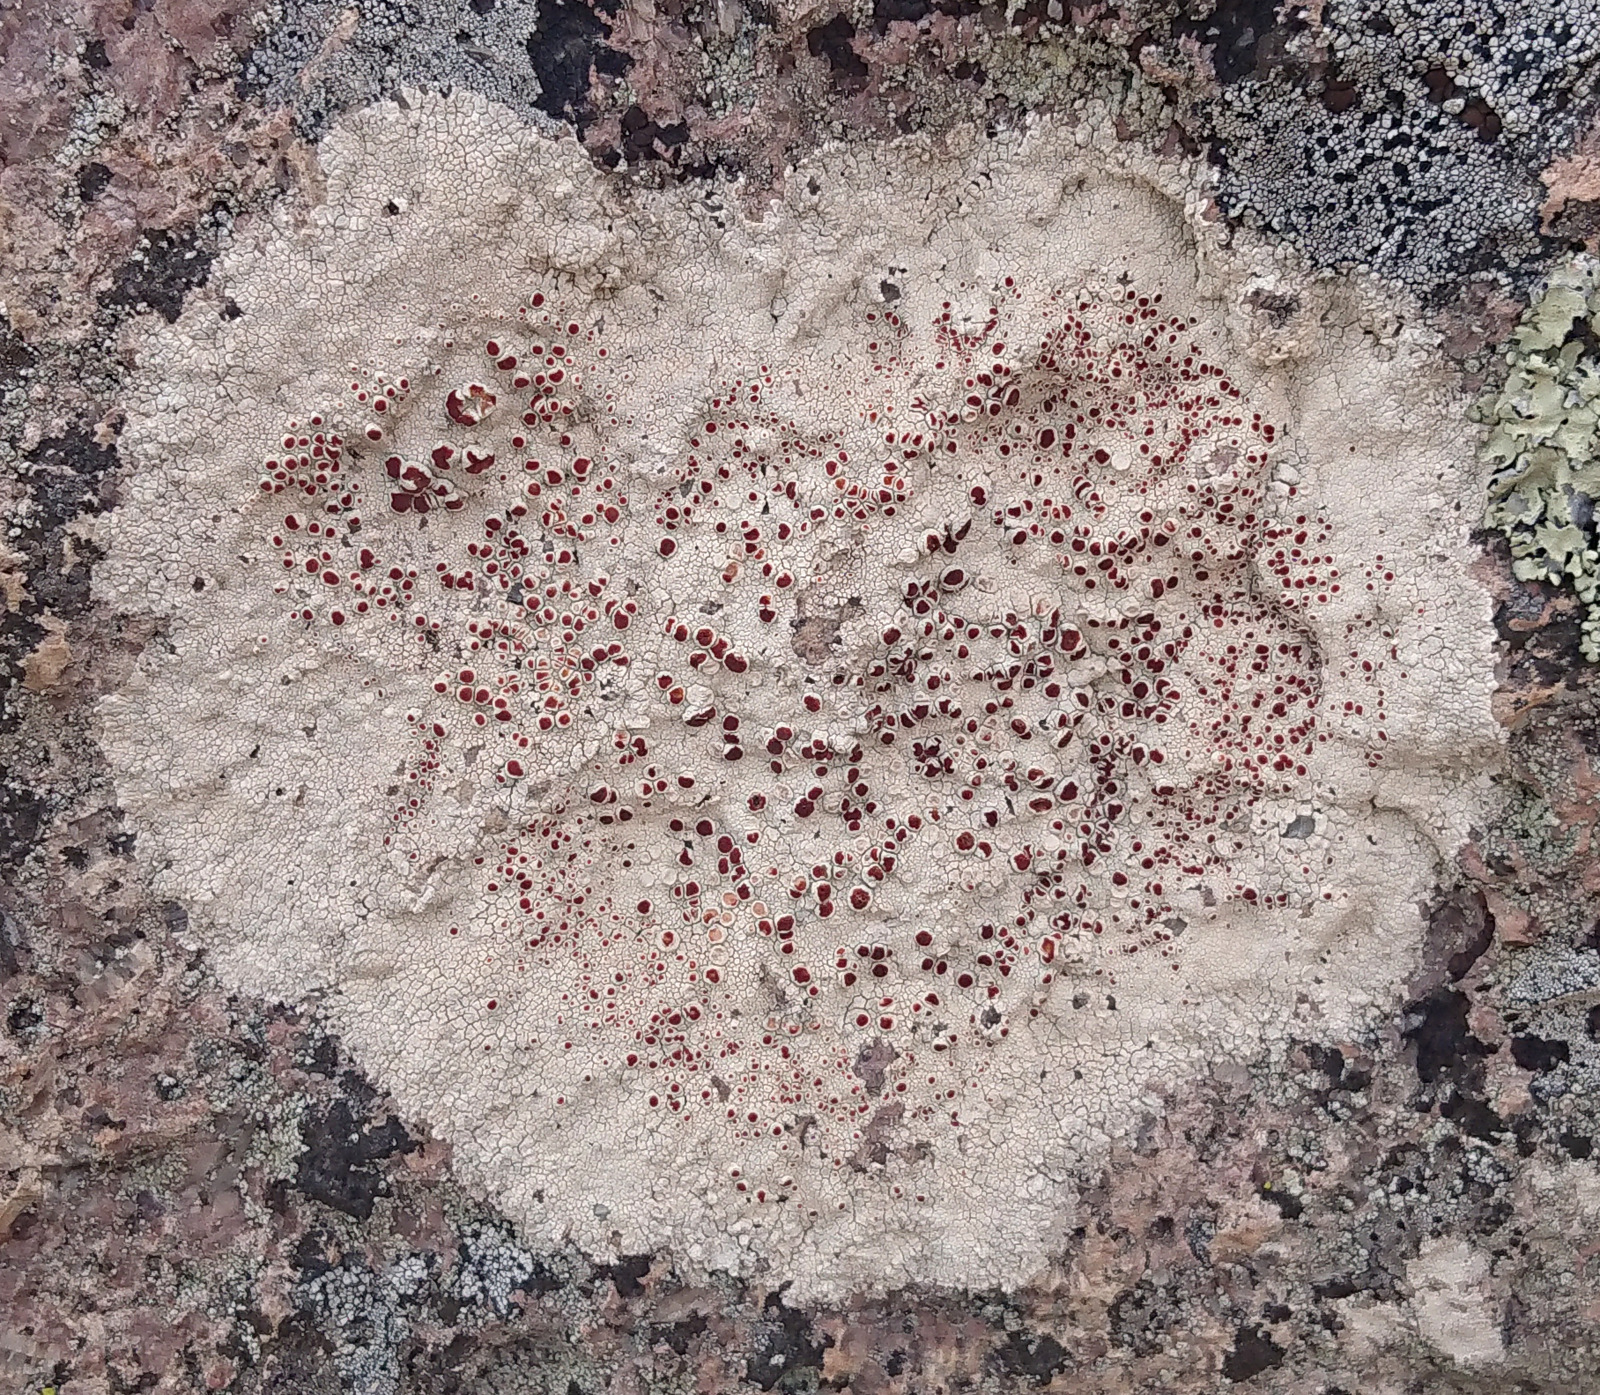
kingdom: Fungi
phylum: Ascomycota
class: Lecanoromycetes
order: Lecanorales
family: Haematommataceae
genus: Haematomma
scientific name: Haematomma fenzlianum
